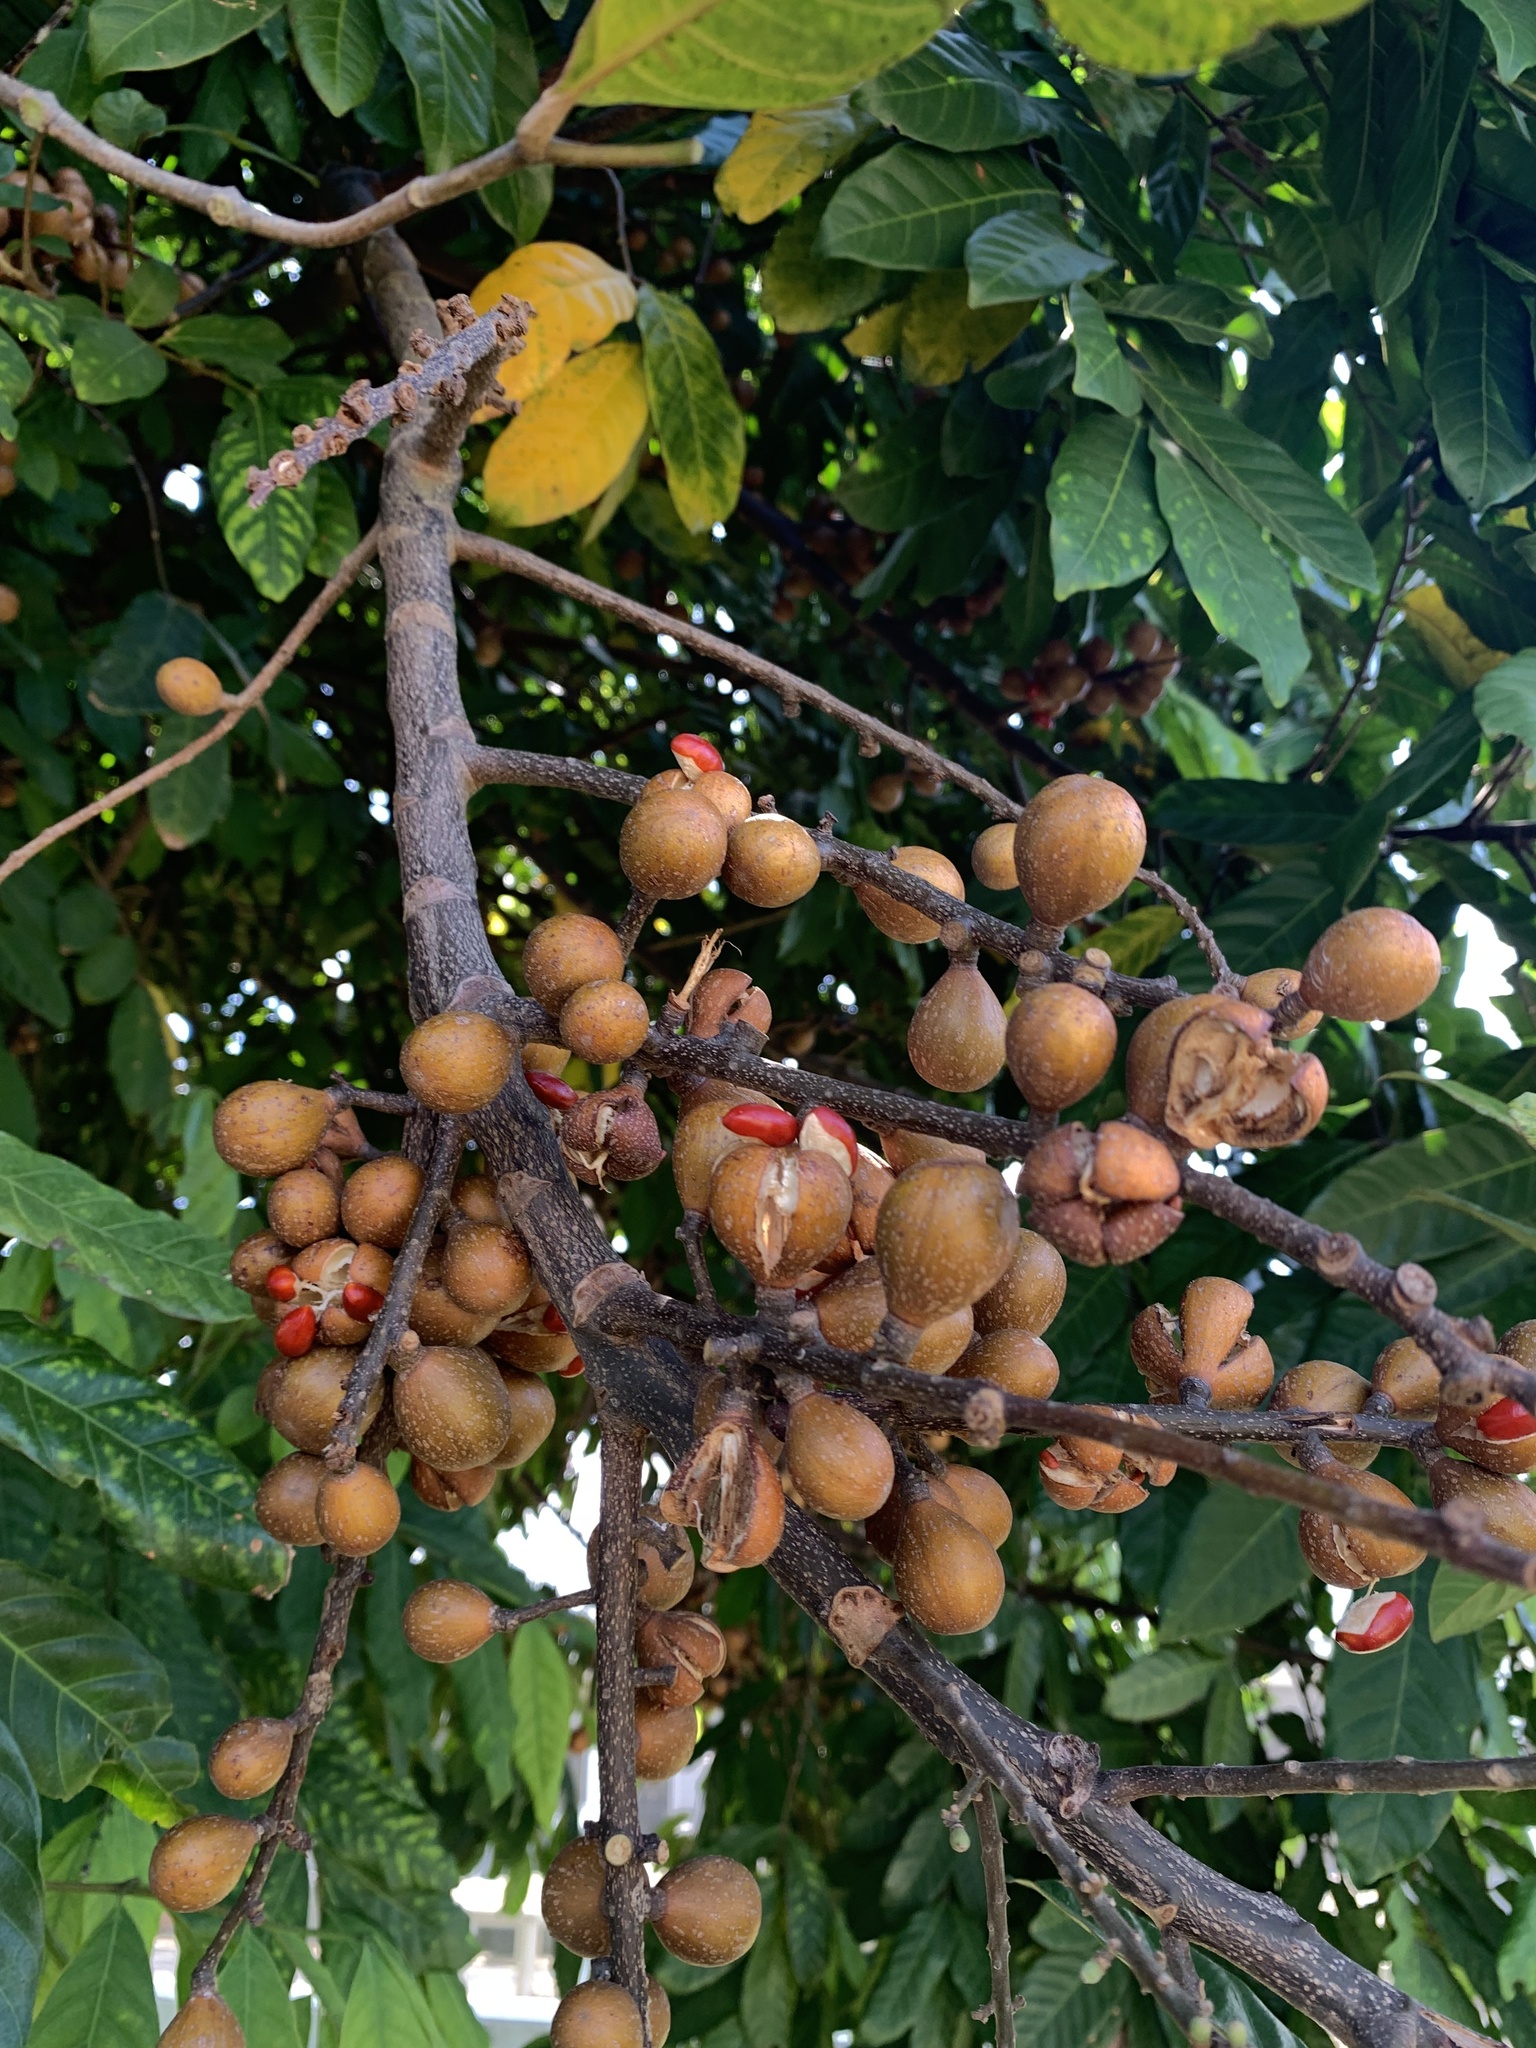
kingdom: Plantae
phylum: Tracheophyta
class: Magnoliopsida
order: Sapindales
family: Meliaceae
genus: Guarea
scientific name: Guarea guidonia
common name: American muskwood
